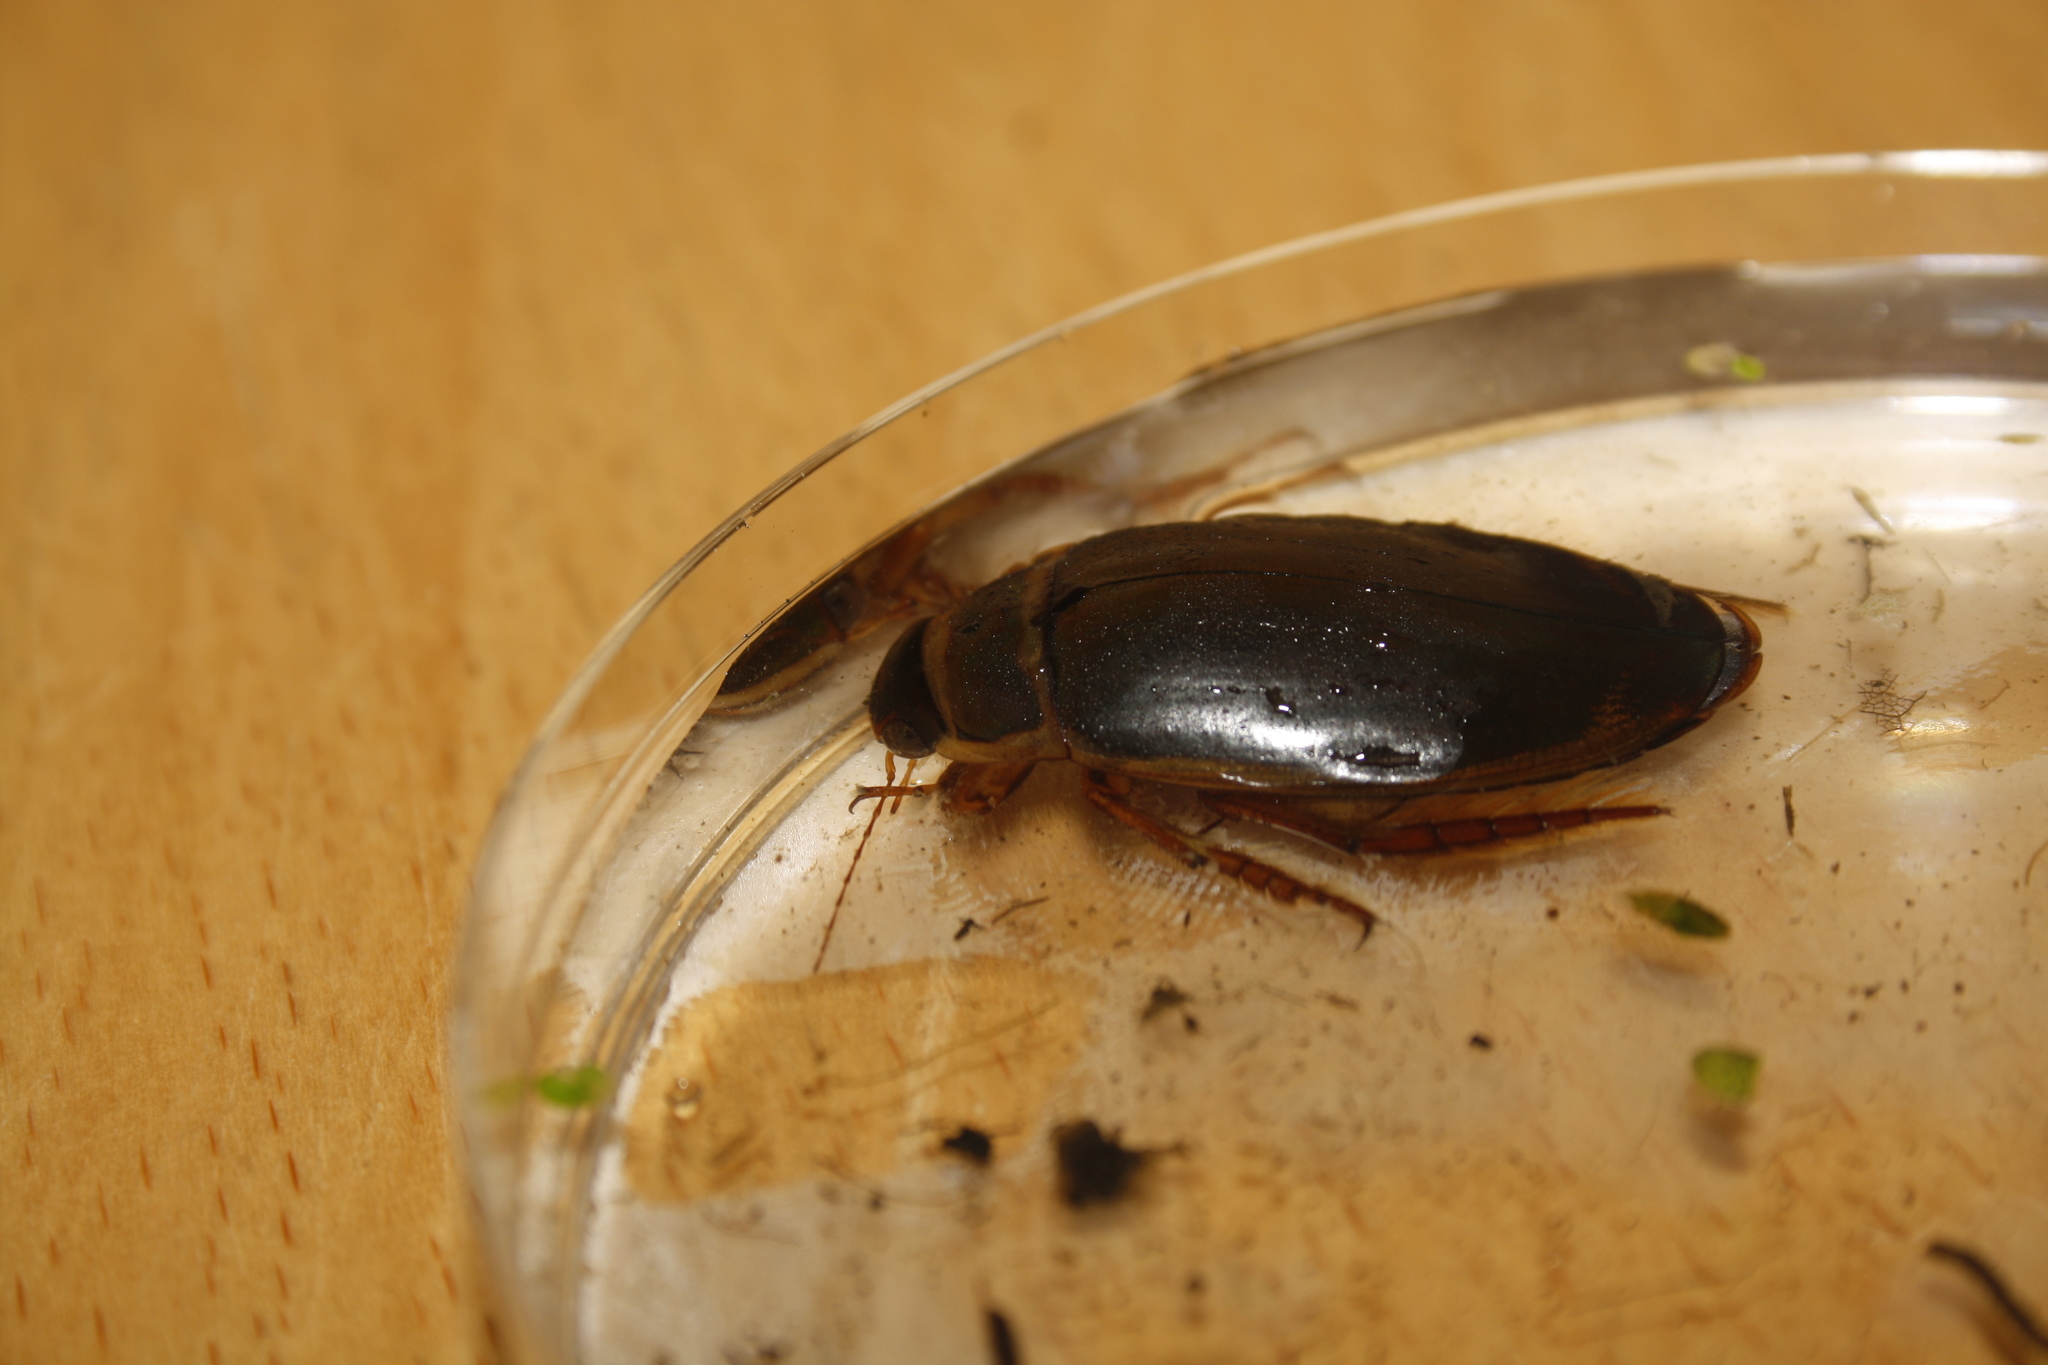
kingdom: Animalia
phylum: Arthropoda
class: Insecta
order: Coleoptera
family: Dytiscidae
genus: Dytiscus
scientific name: Dytiscus marginalis
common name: Great water beetle
